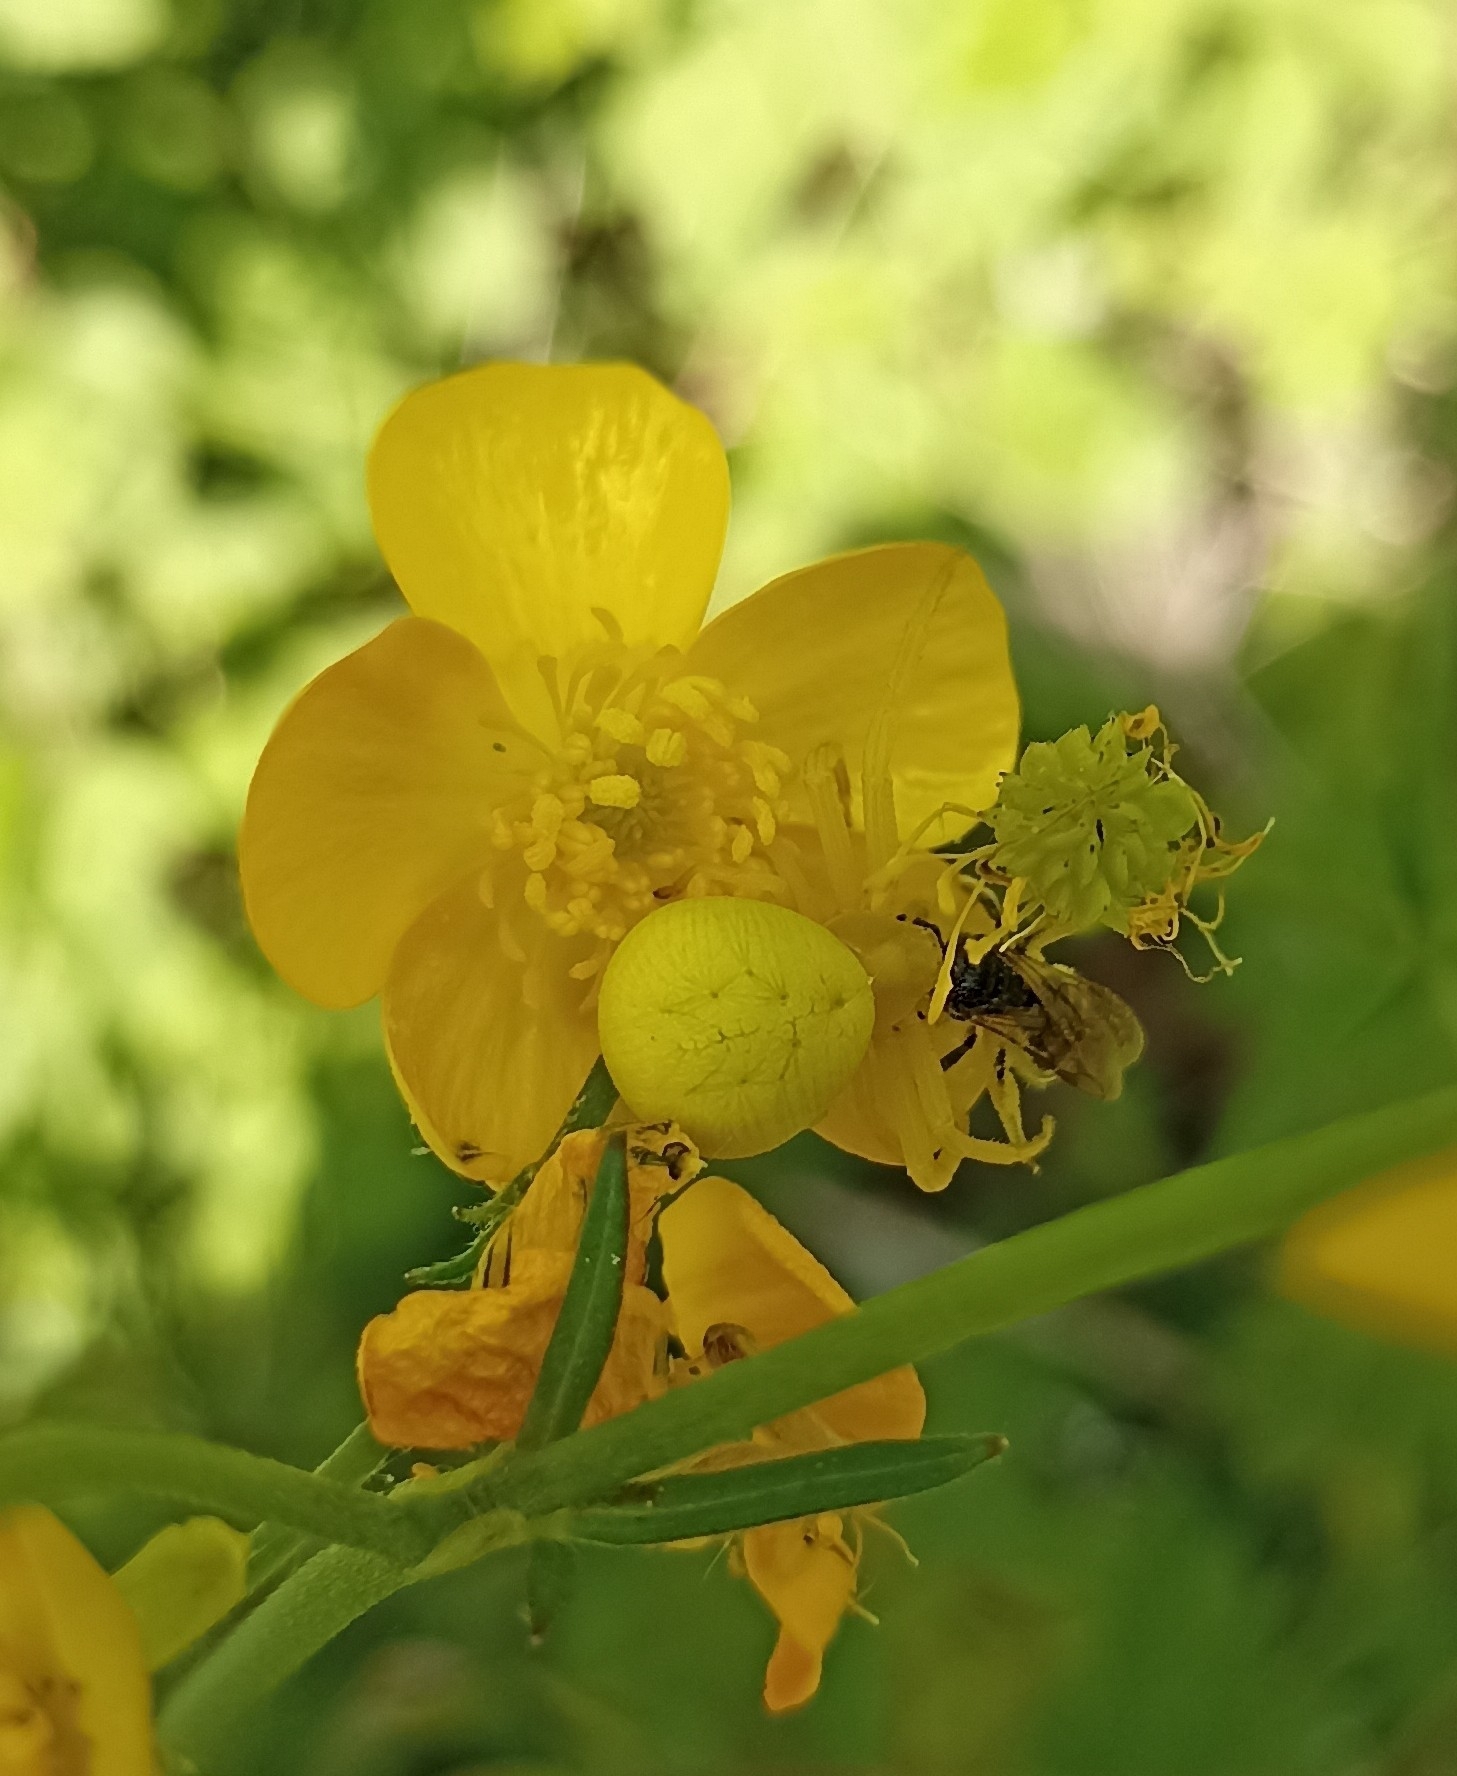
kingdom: Animalia
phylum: Arthropoda
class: Arachnida
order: Araneae
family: Thomisidae
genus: Misumena
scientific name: Misumena vatia
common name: Goldenrod crab spider
